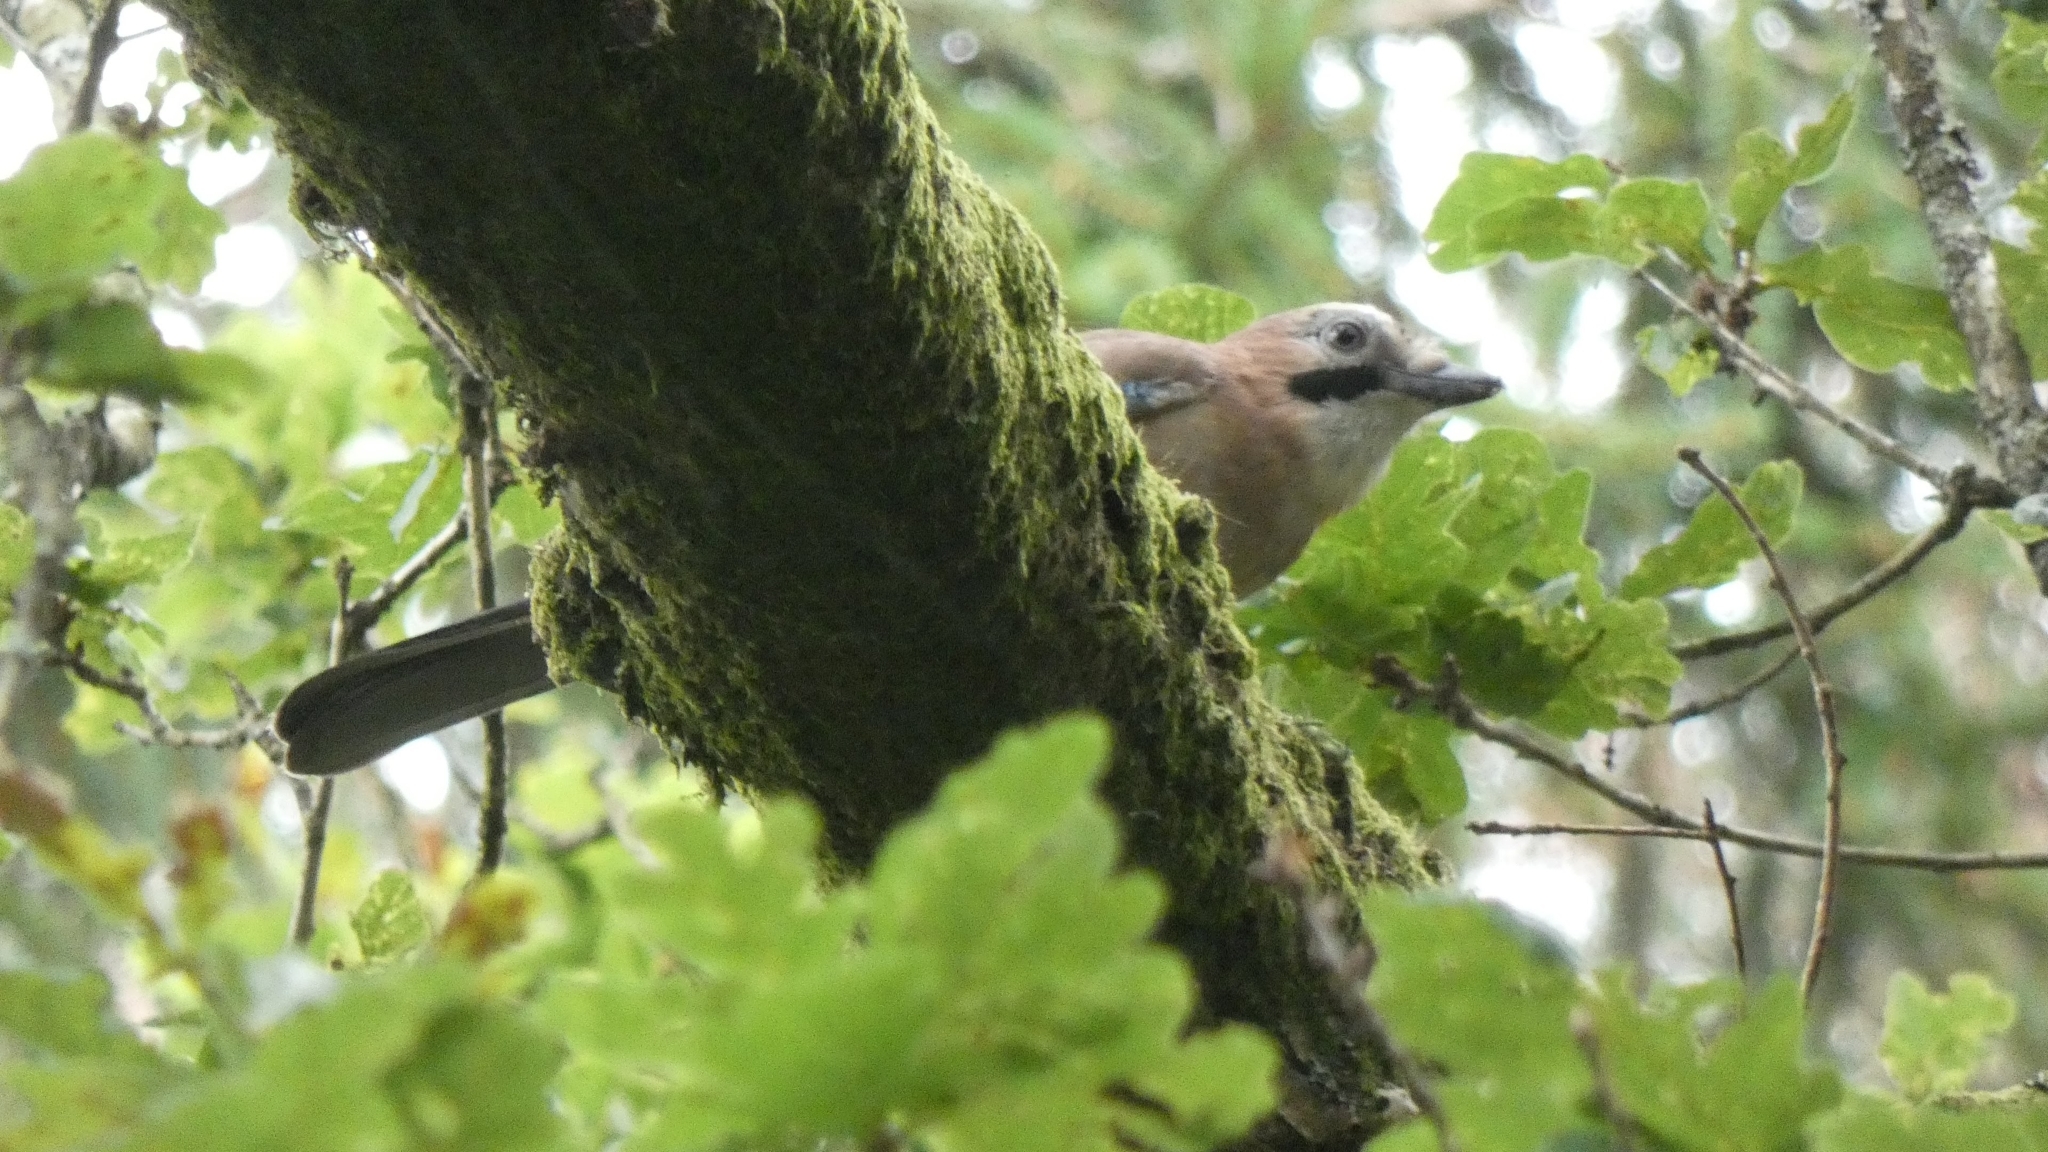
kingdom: Animalia
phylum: Chordata
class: Aves
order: Passeriformes
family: Corvidae
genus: Garrulus
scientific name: Garrulus glandarius
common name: Eurasian jay
